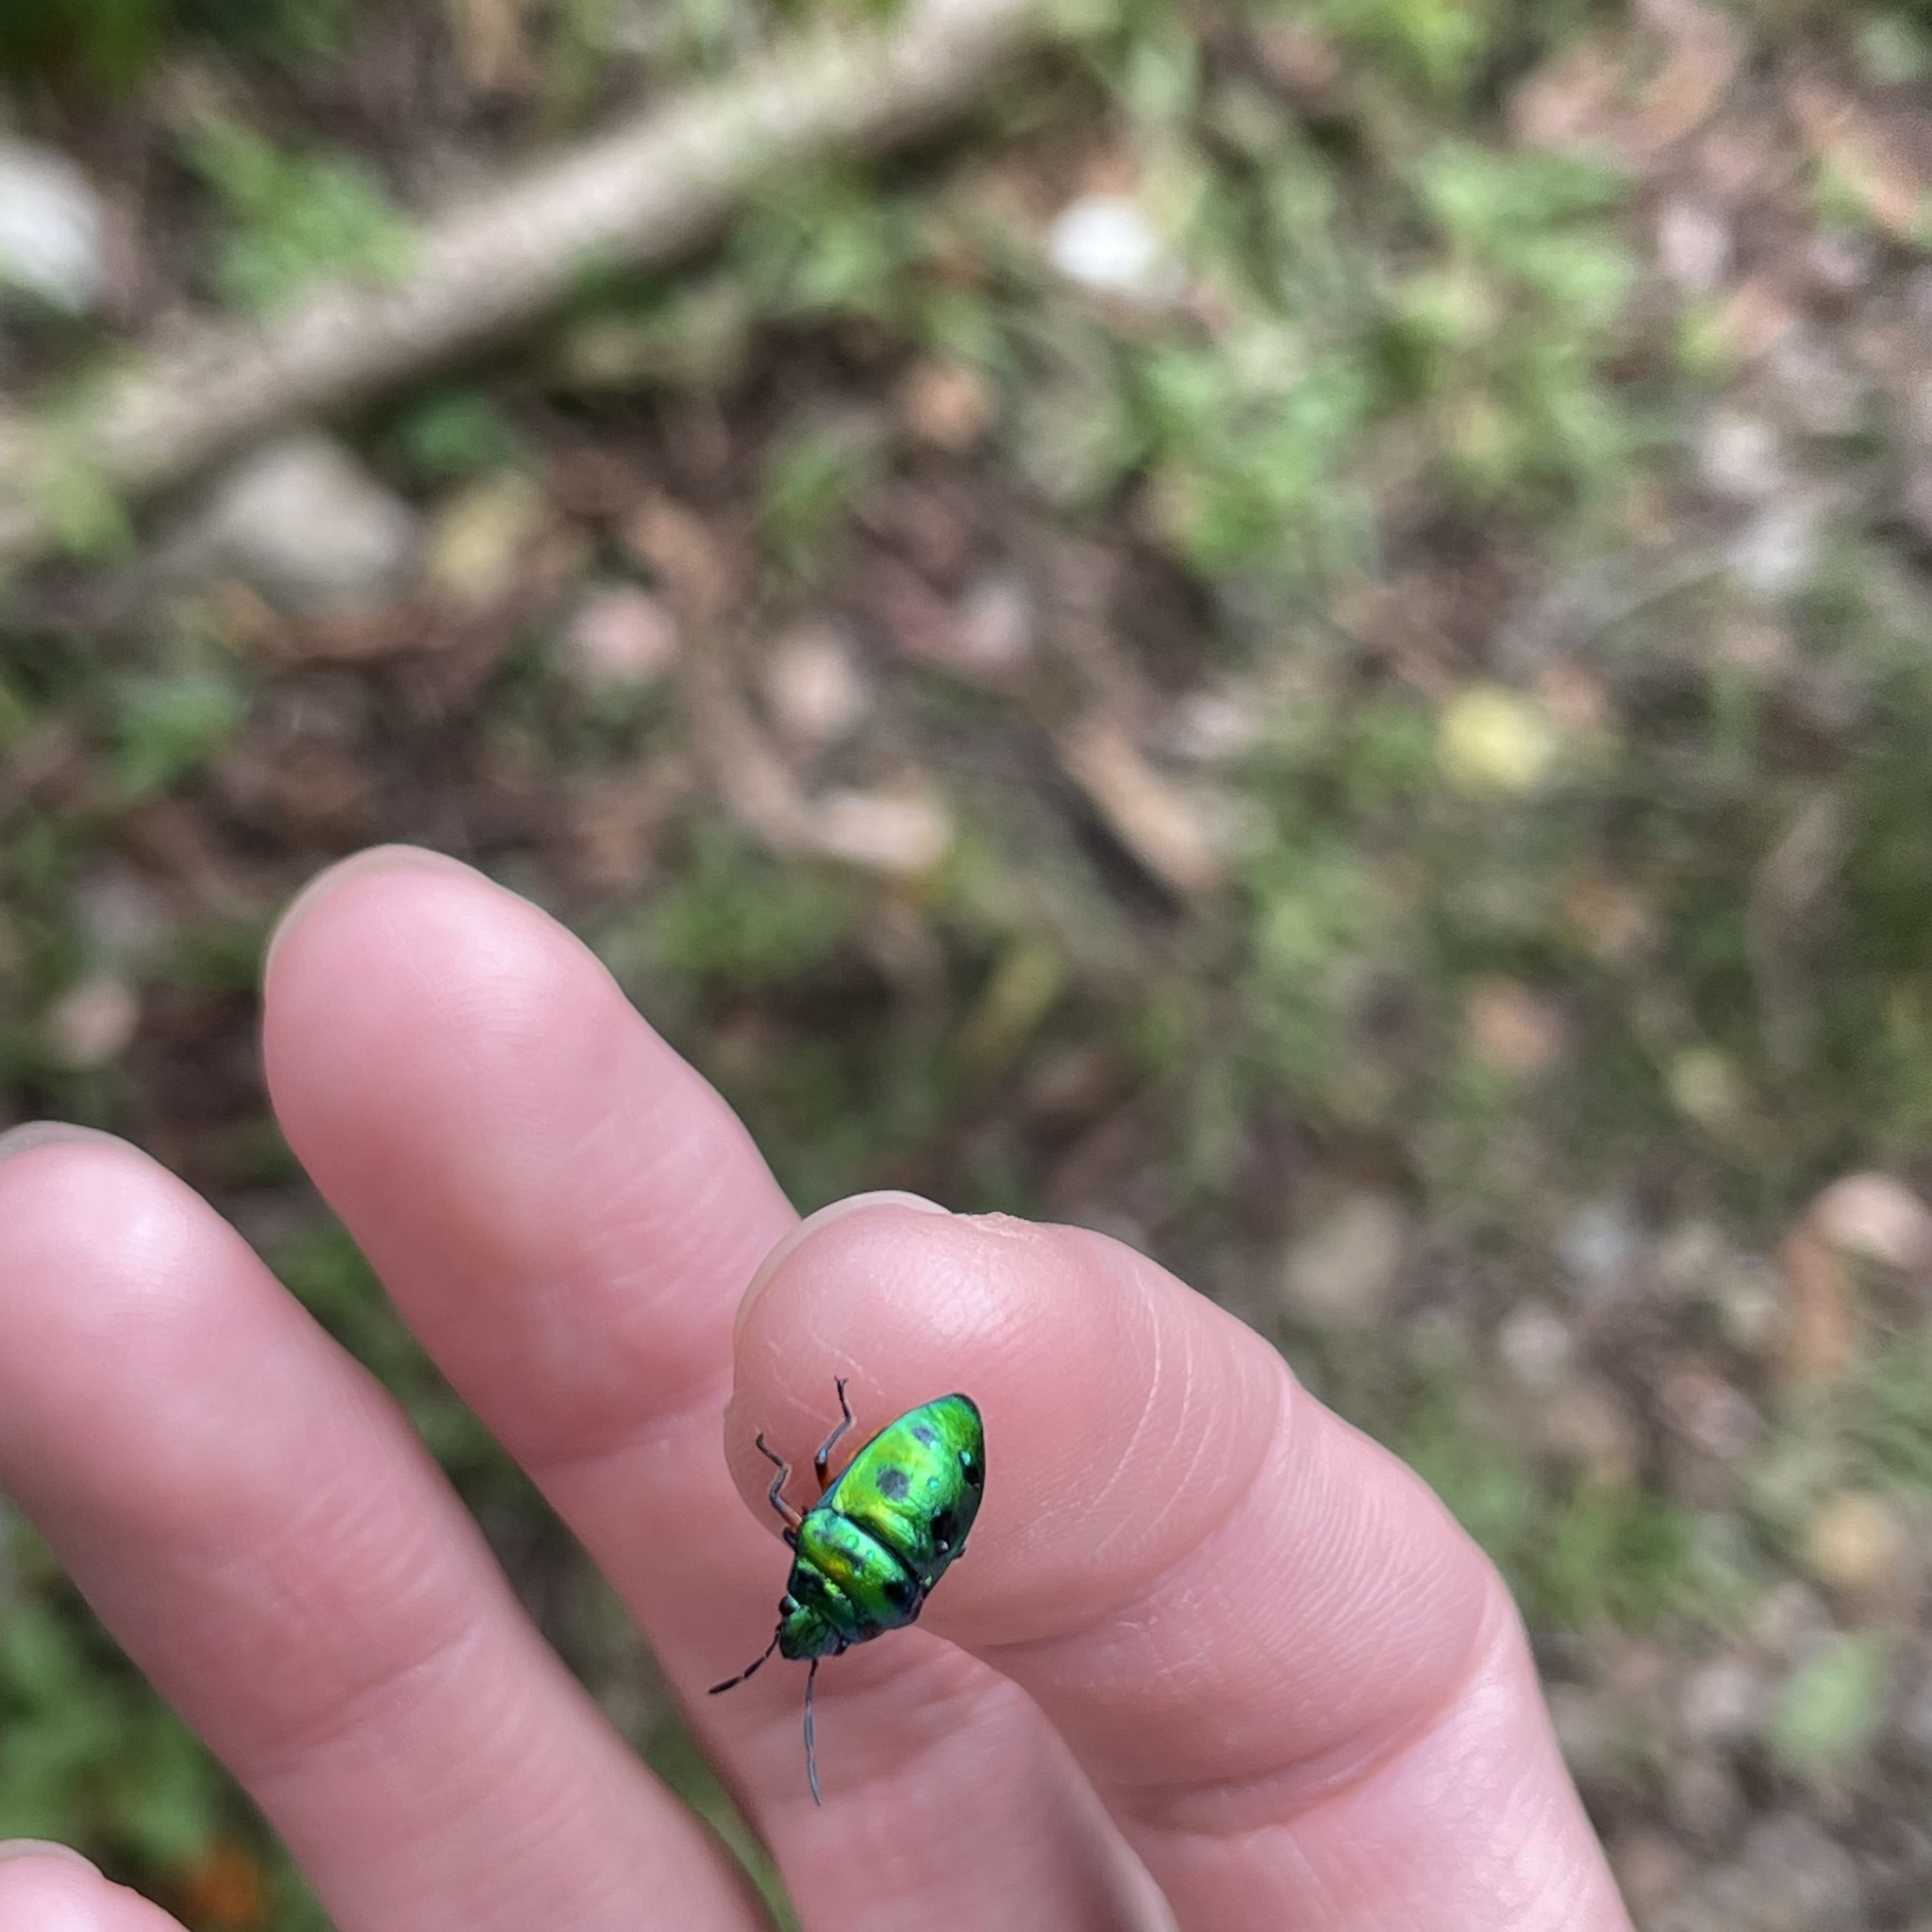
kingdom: Animalia
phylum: Arthropoda
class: Insecta
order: Hemiptera
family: Scutelleridae
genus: Lampromicra
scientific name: Lampromicra miyakona
